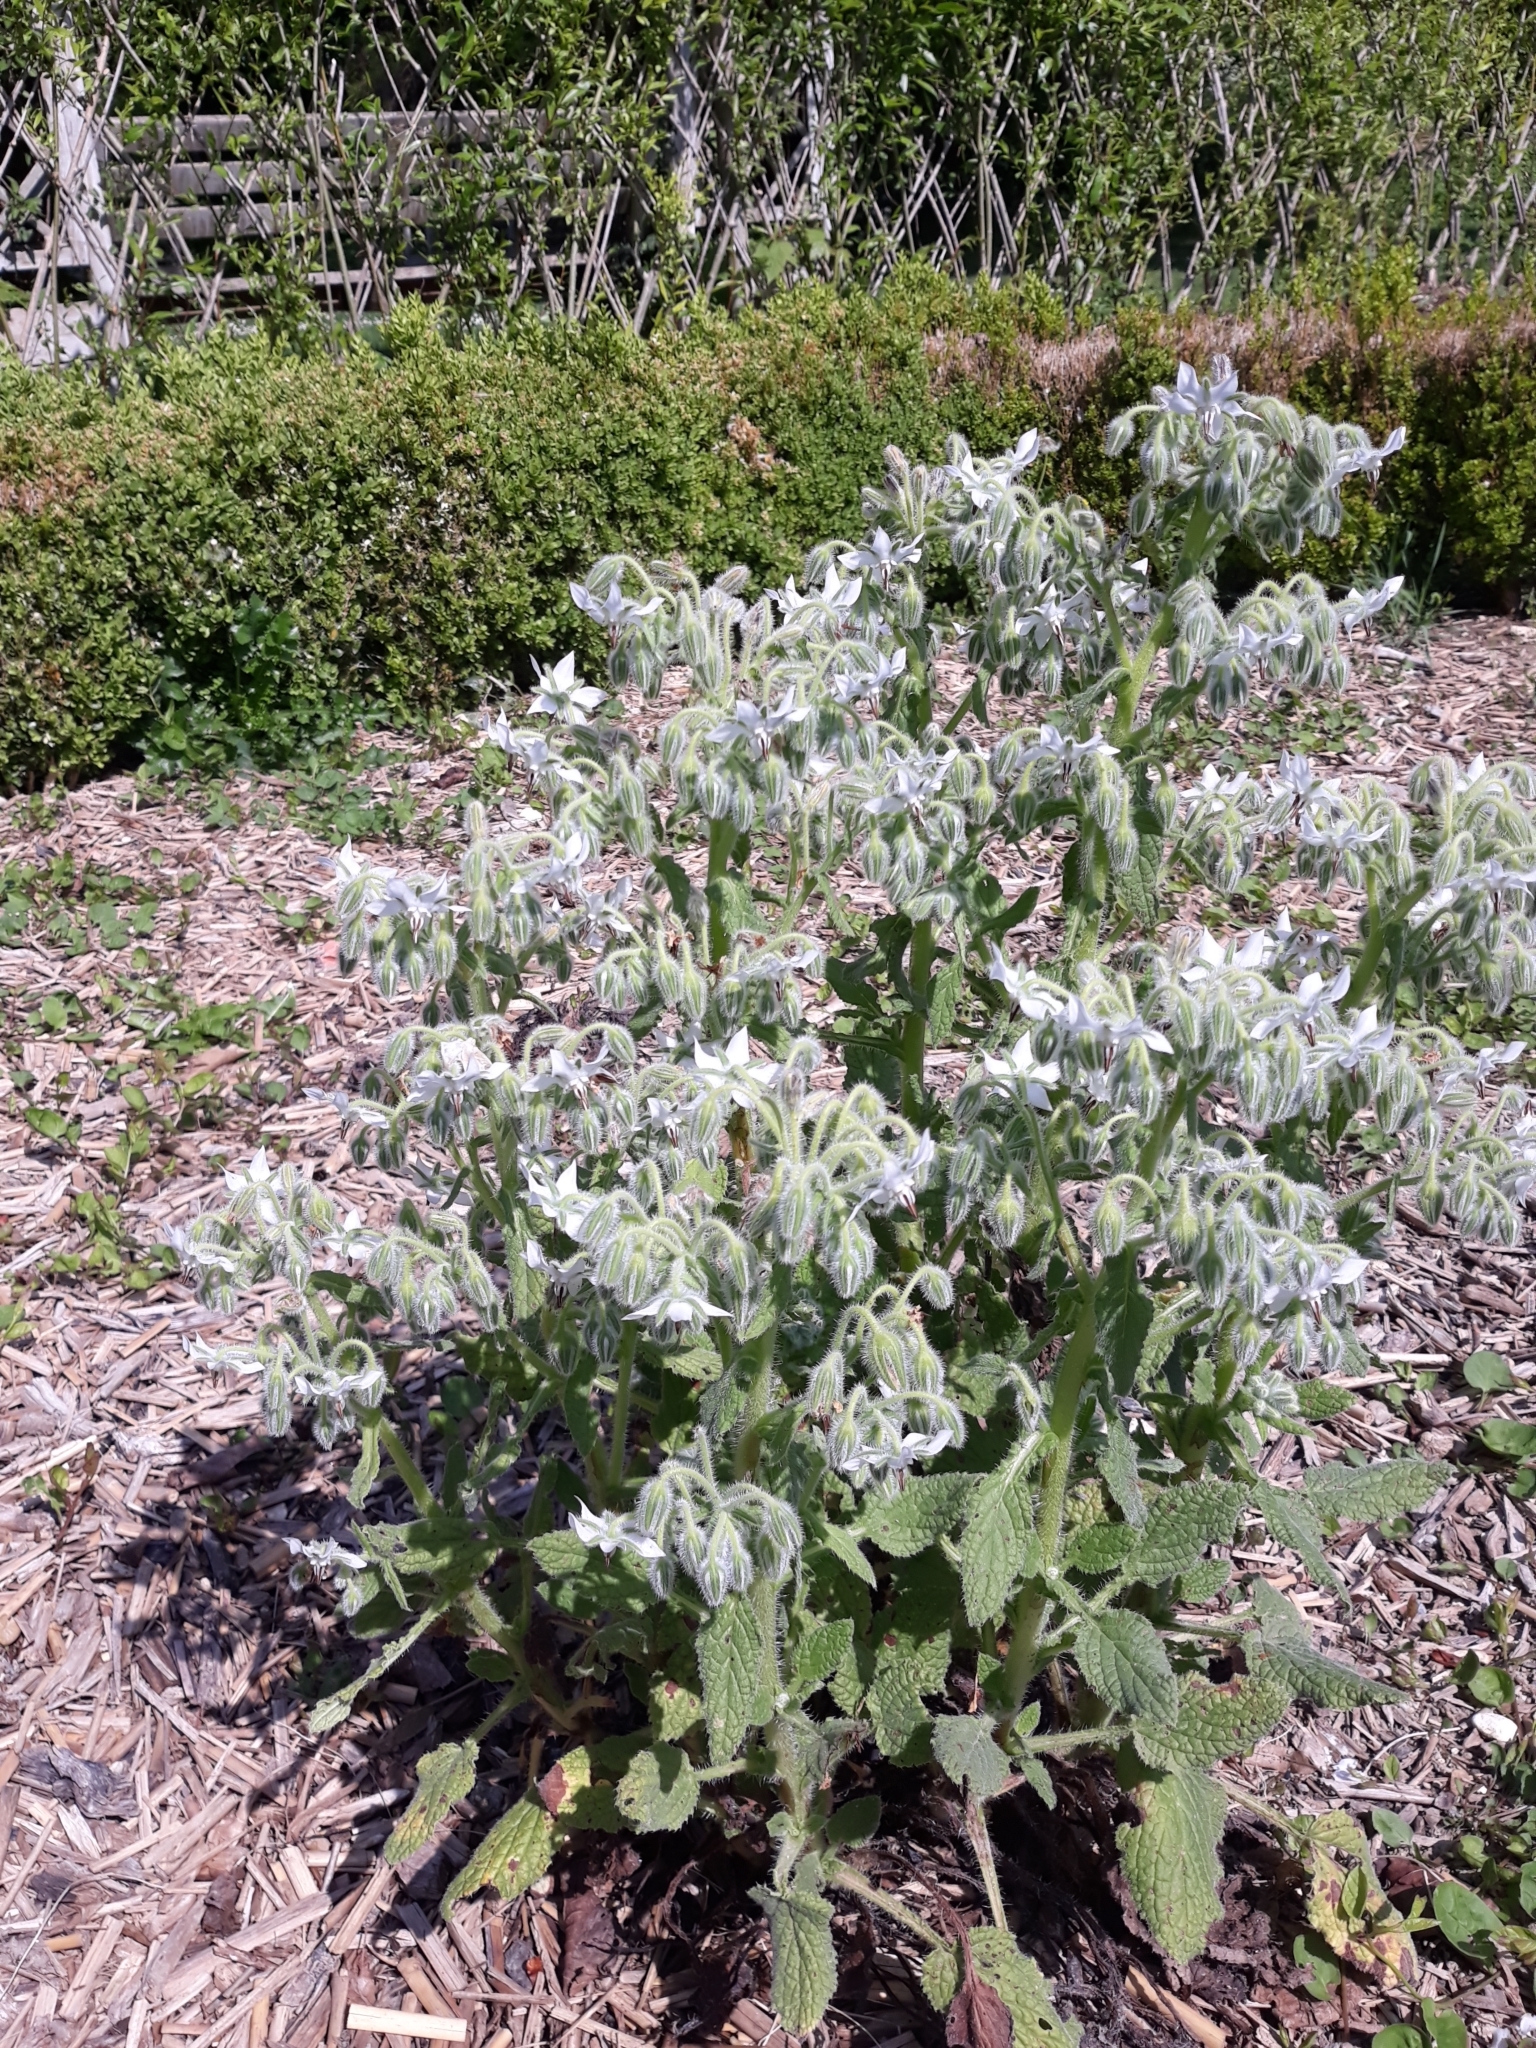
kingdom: Plantae
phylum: Tracheophyta
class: Magnoliopsida
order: Boraginales
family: Boraginaceae
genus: Borago
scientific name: Borago officinalis
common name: Borage
